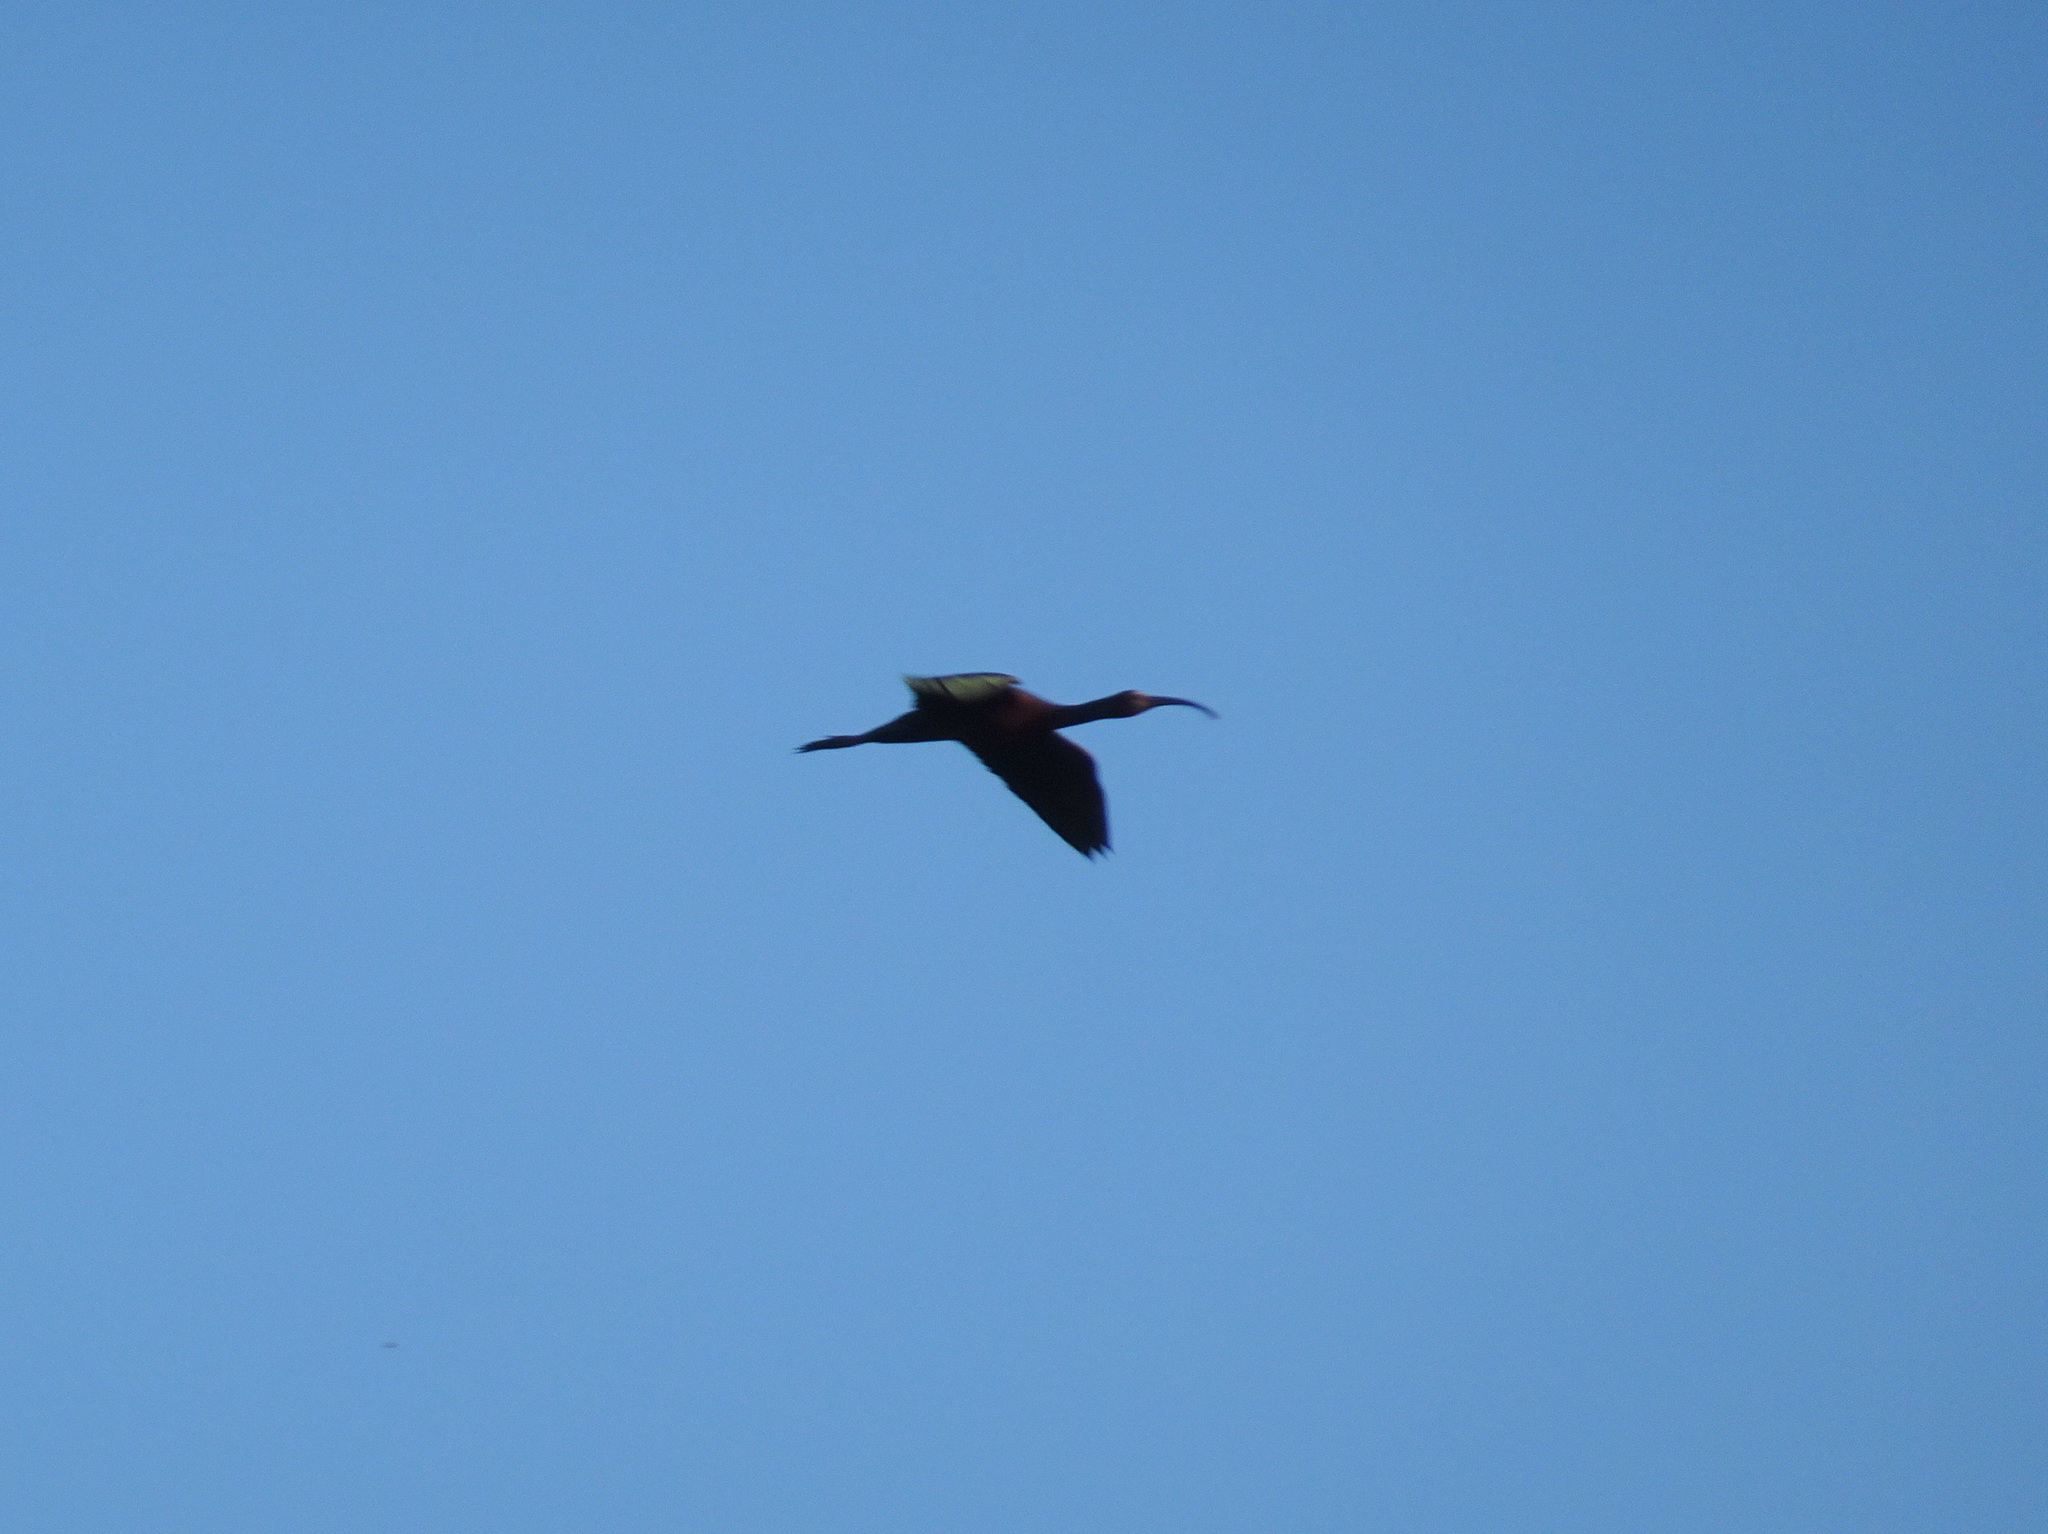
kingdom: Animalia
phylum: Chordata
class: Aves
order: Pelecaniformes
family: Threskiornithidae
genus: Plegadis
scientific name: Plegadis chihi
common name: White-faced ibis
